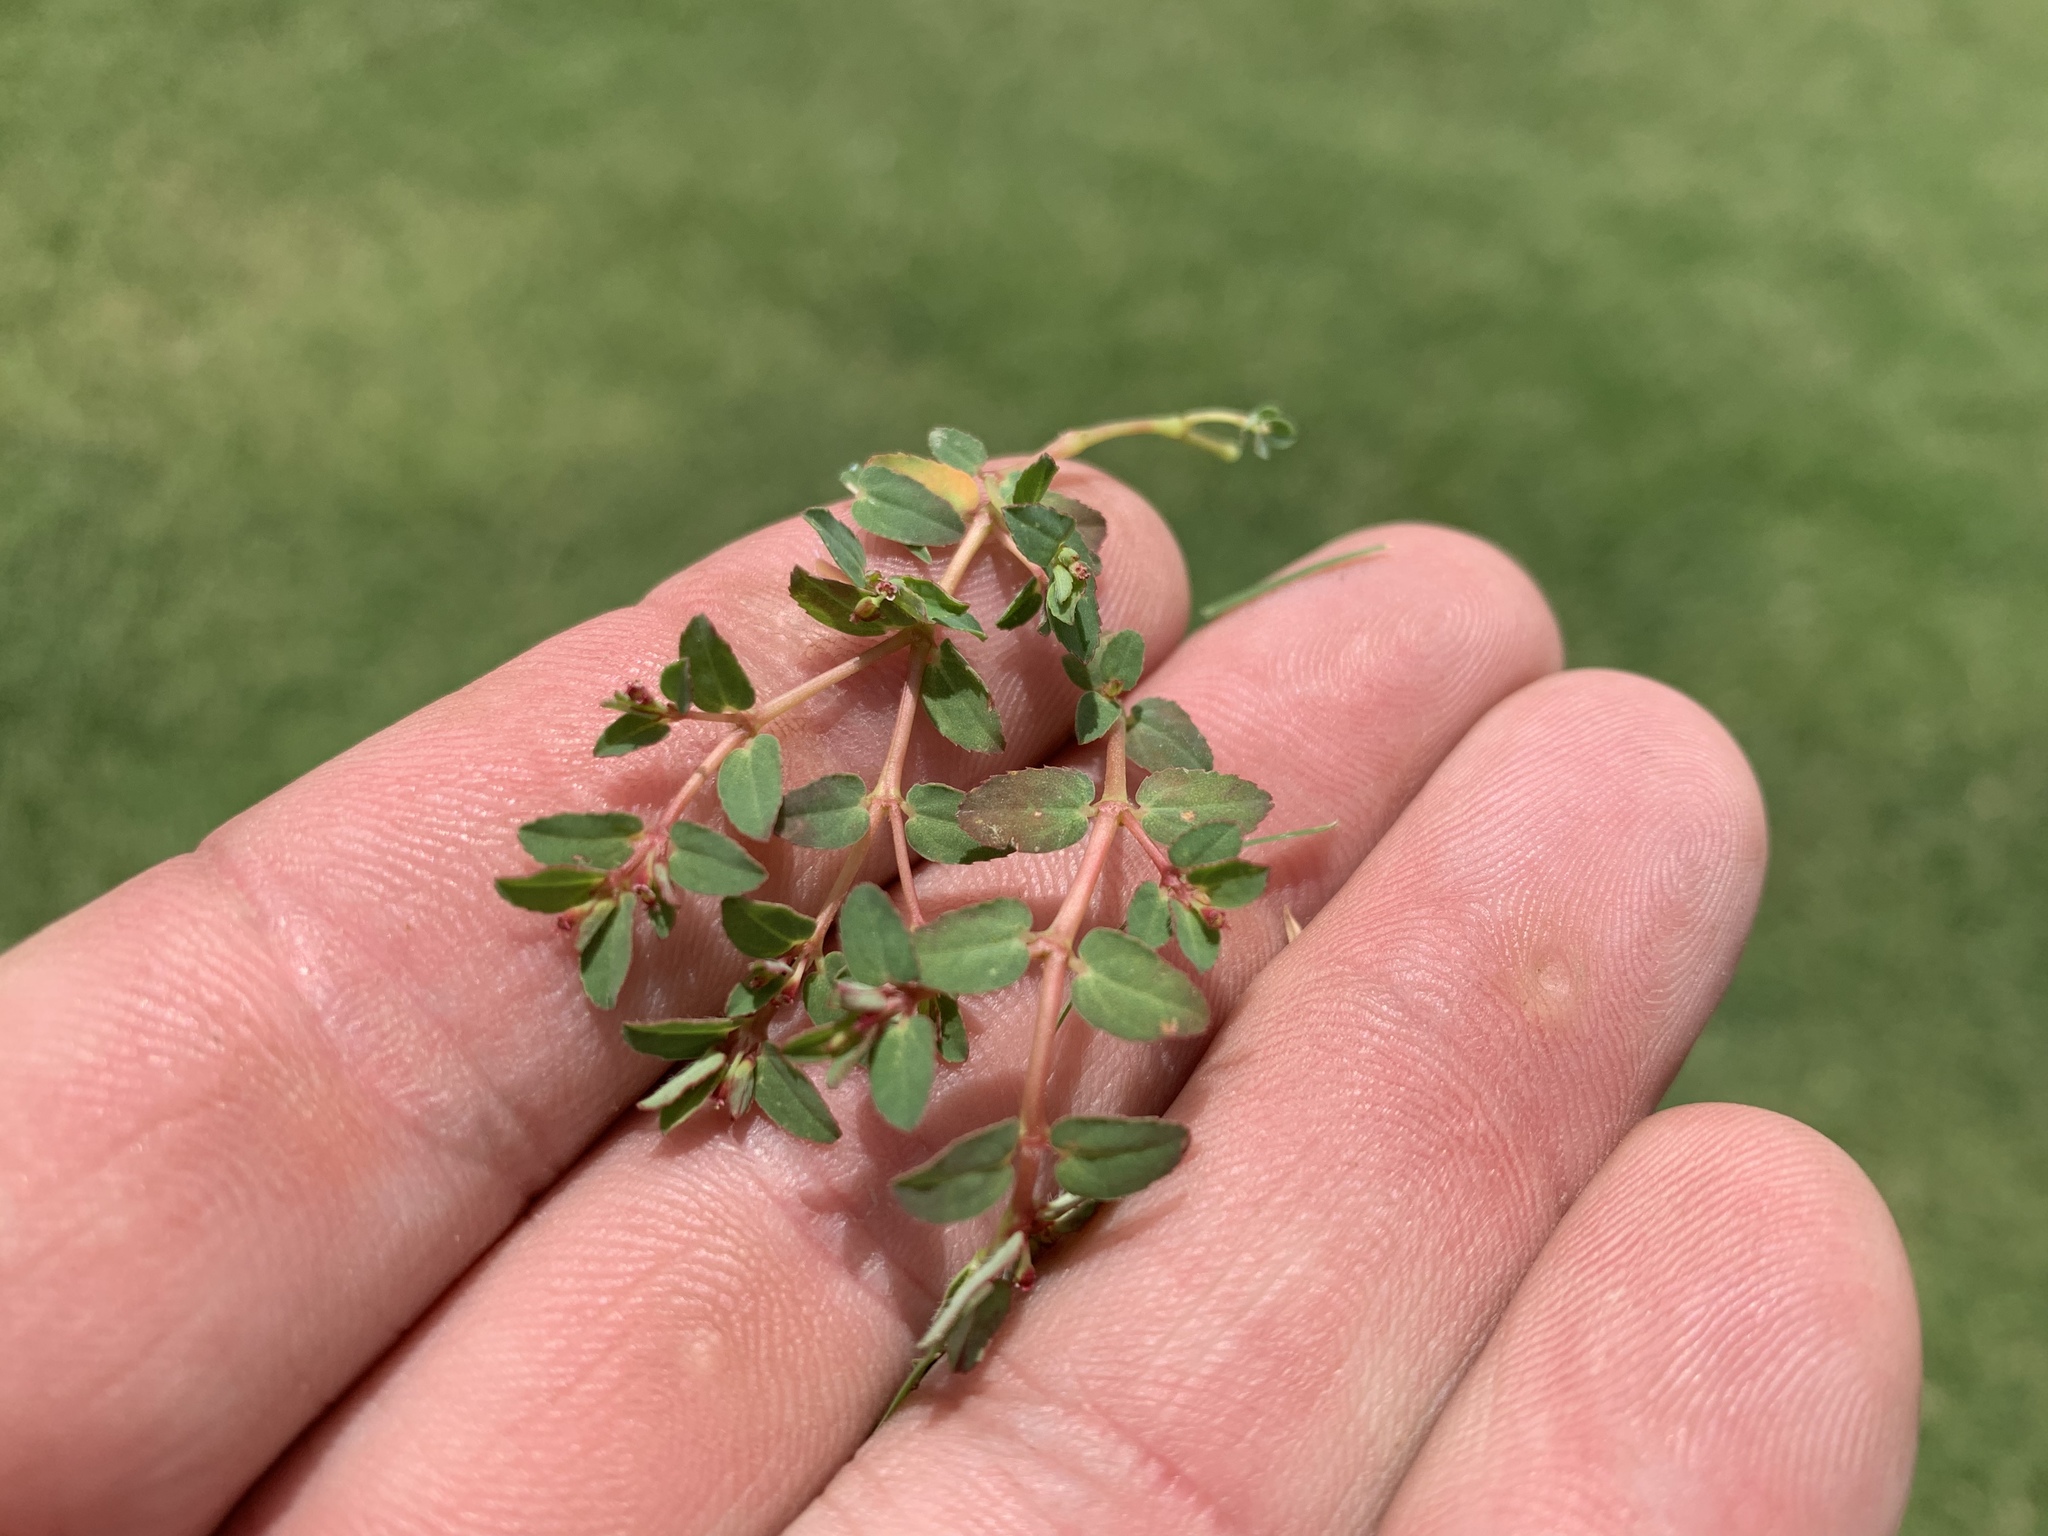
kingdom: Plantae
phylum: Tracheophyta
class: Magnoliopsida
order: Malpighiales
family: Euphorbiaceae
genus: Euphorbia
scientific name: Euphorbia vermiculata
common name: Hairy spurge
